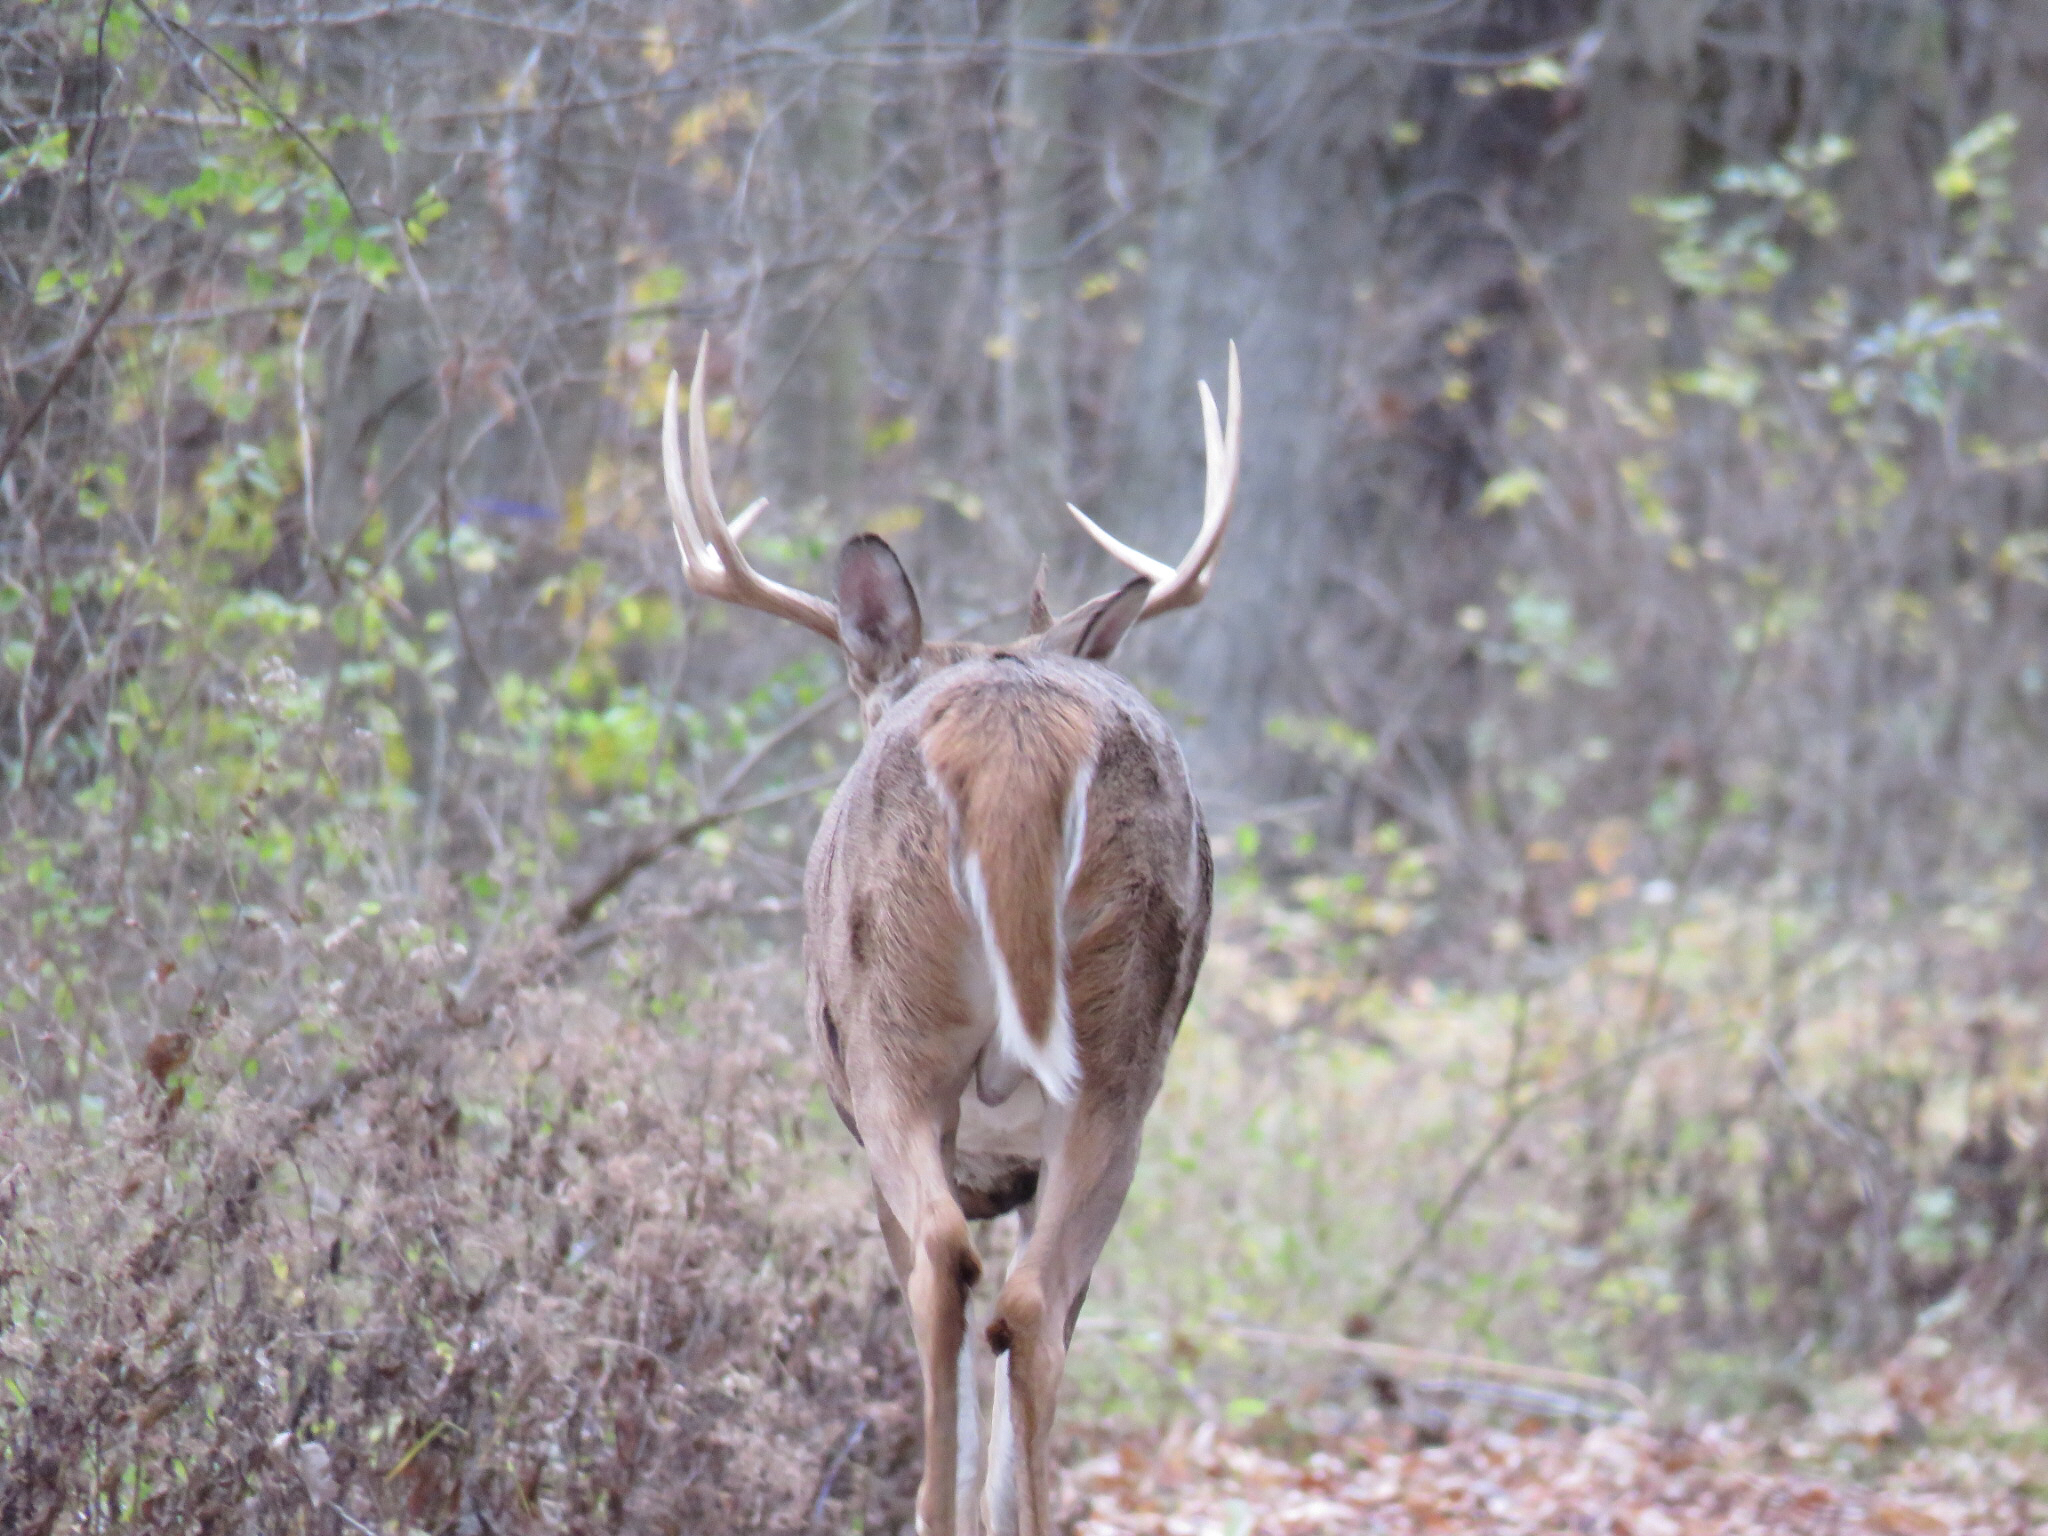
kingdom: Animalia
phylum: Chordata
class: Mammalia
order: Artiodactyla
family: Cervidae
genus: Odocoileus
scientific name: Odocoileus virginianus
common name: White-tailed deer
